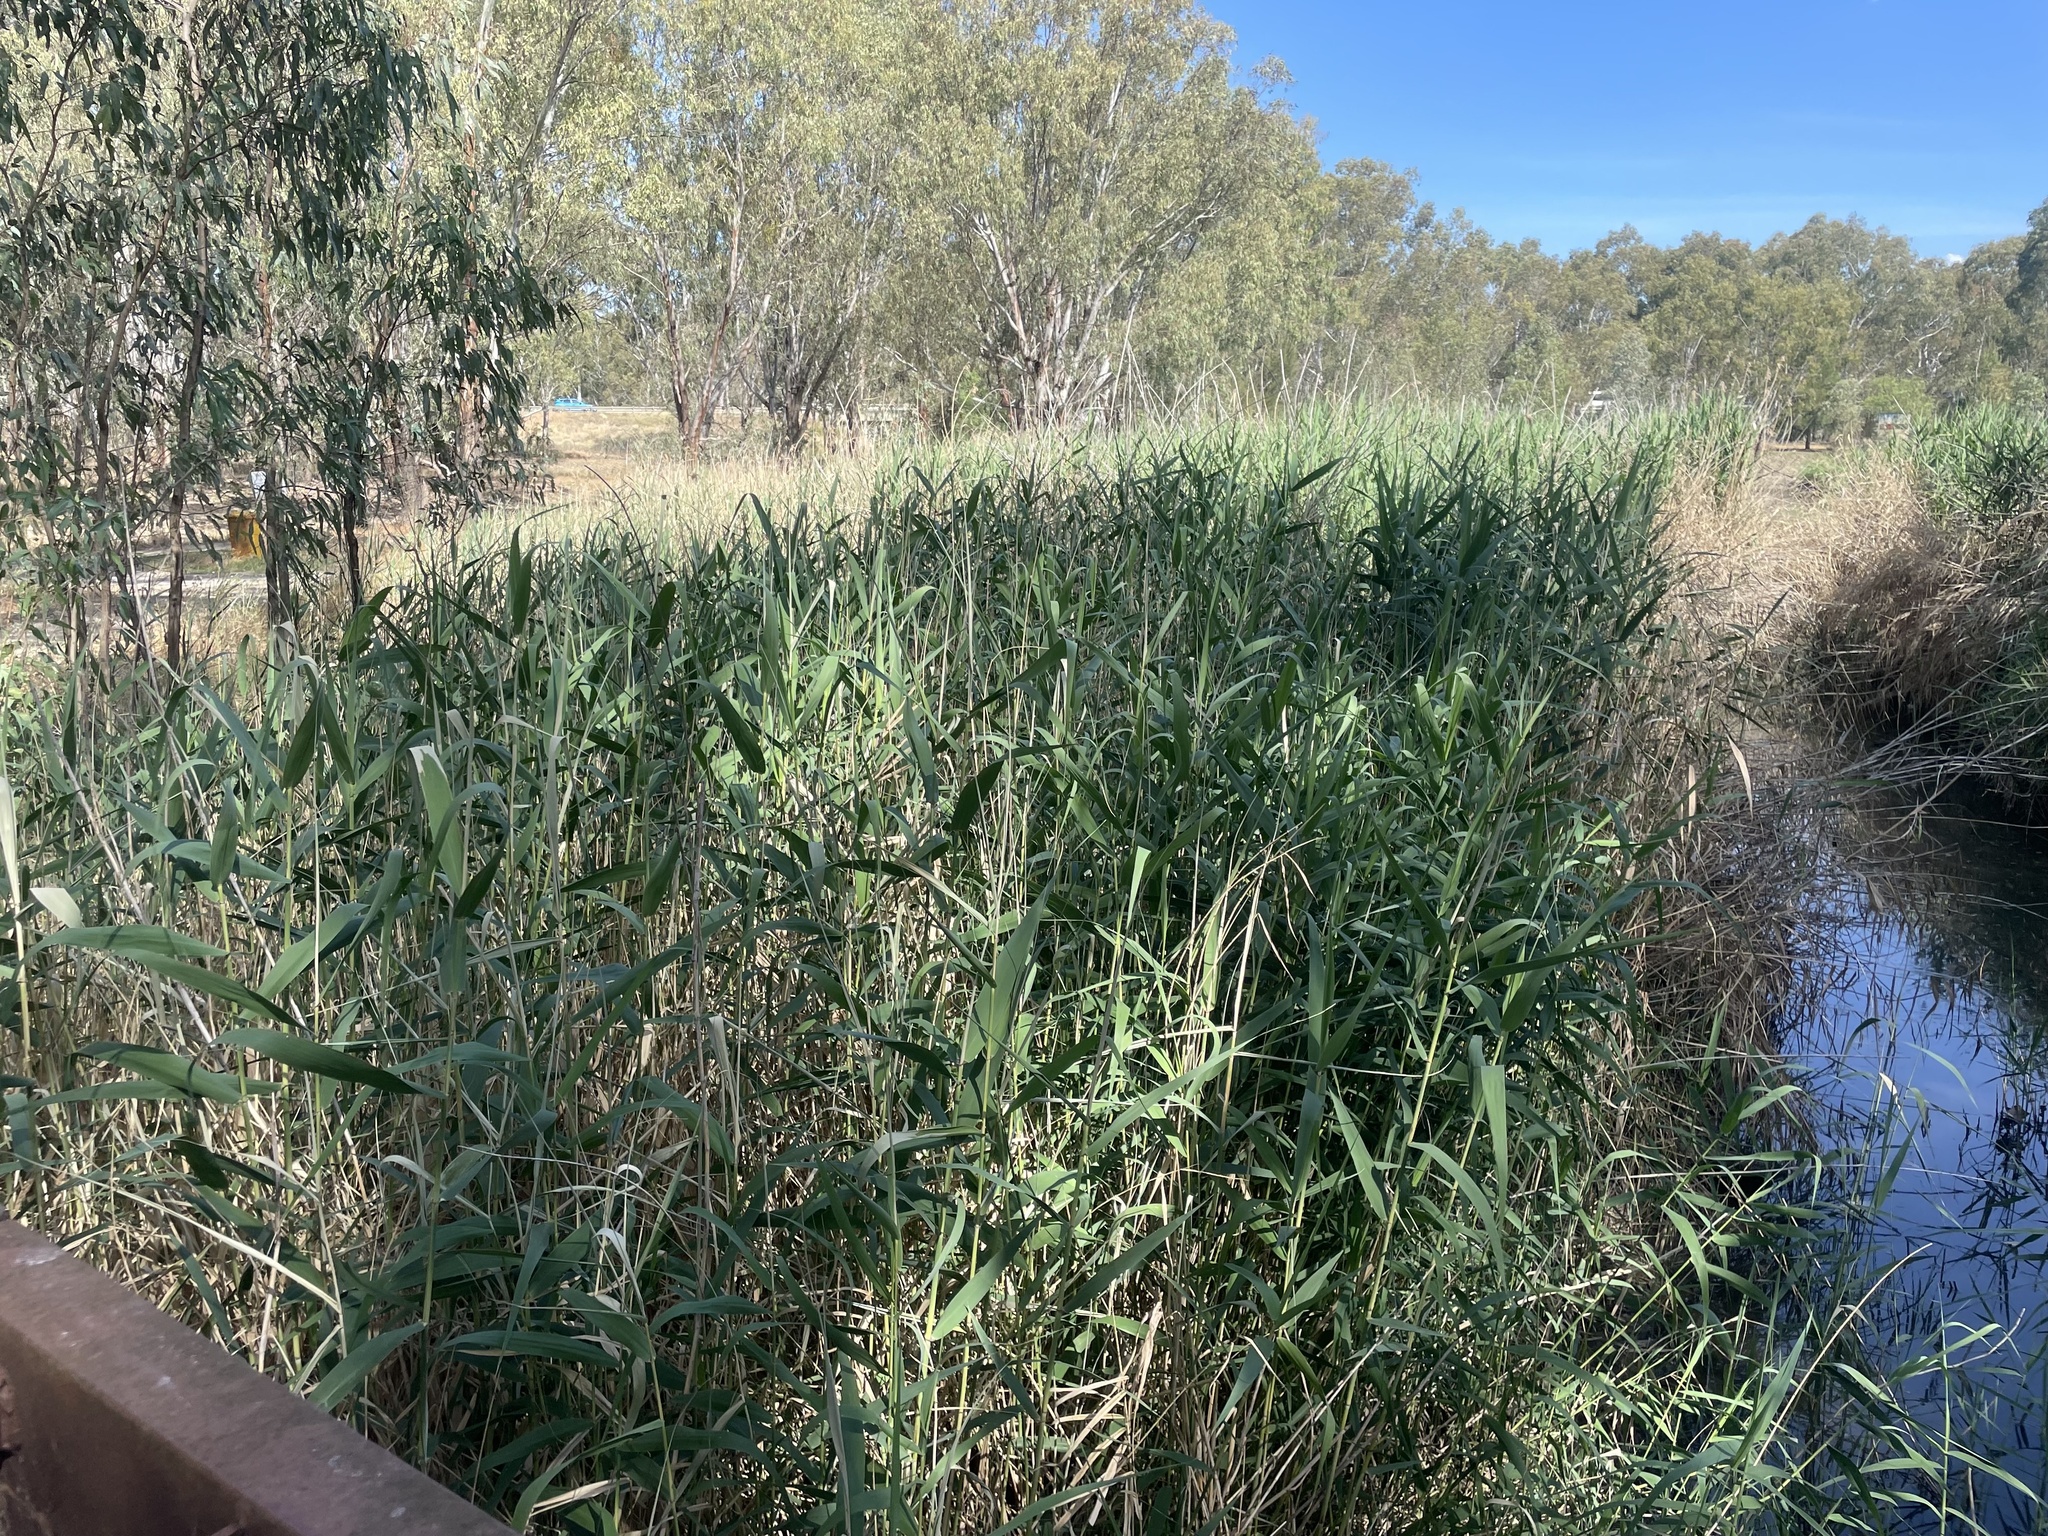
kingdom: Plantae
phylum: Tracheophyta
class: Liliopsida
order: Poales
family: Poaceae
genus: Phragmites
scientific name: Phragmites australis
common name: Common reed
